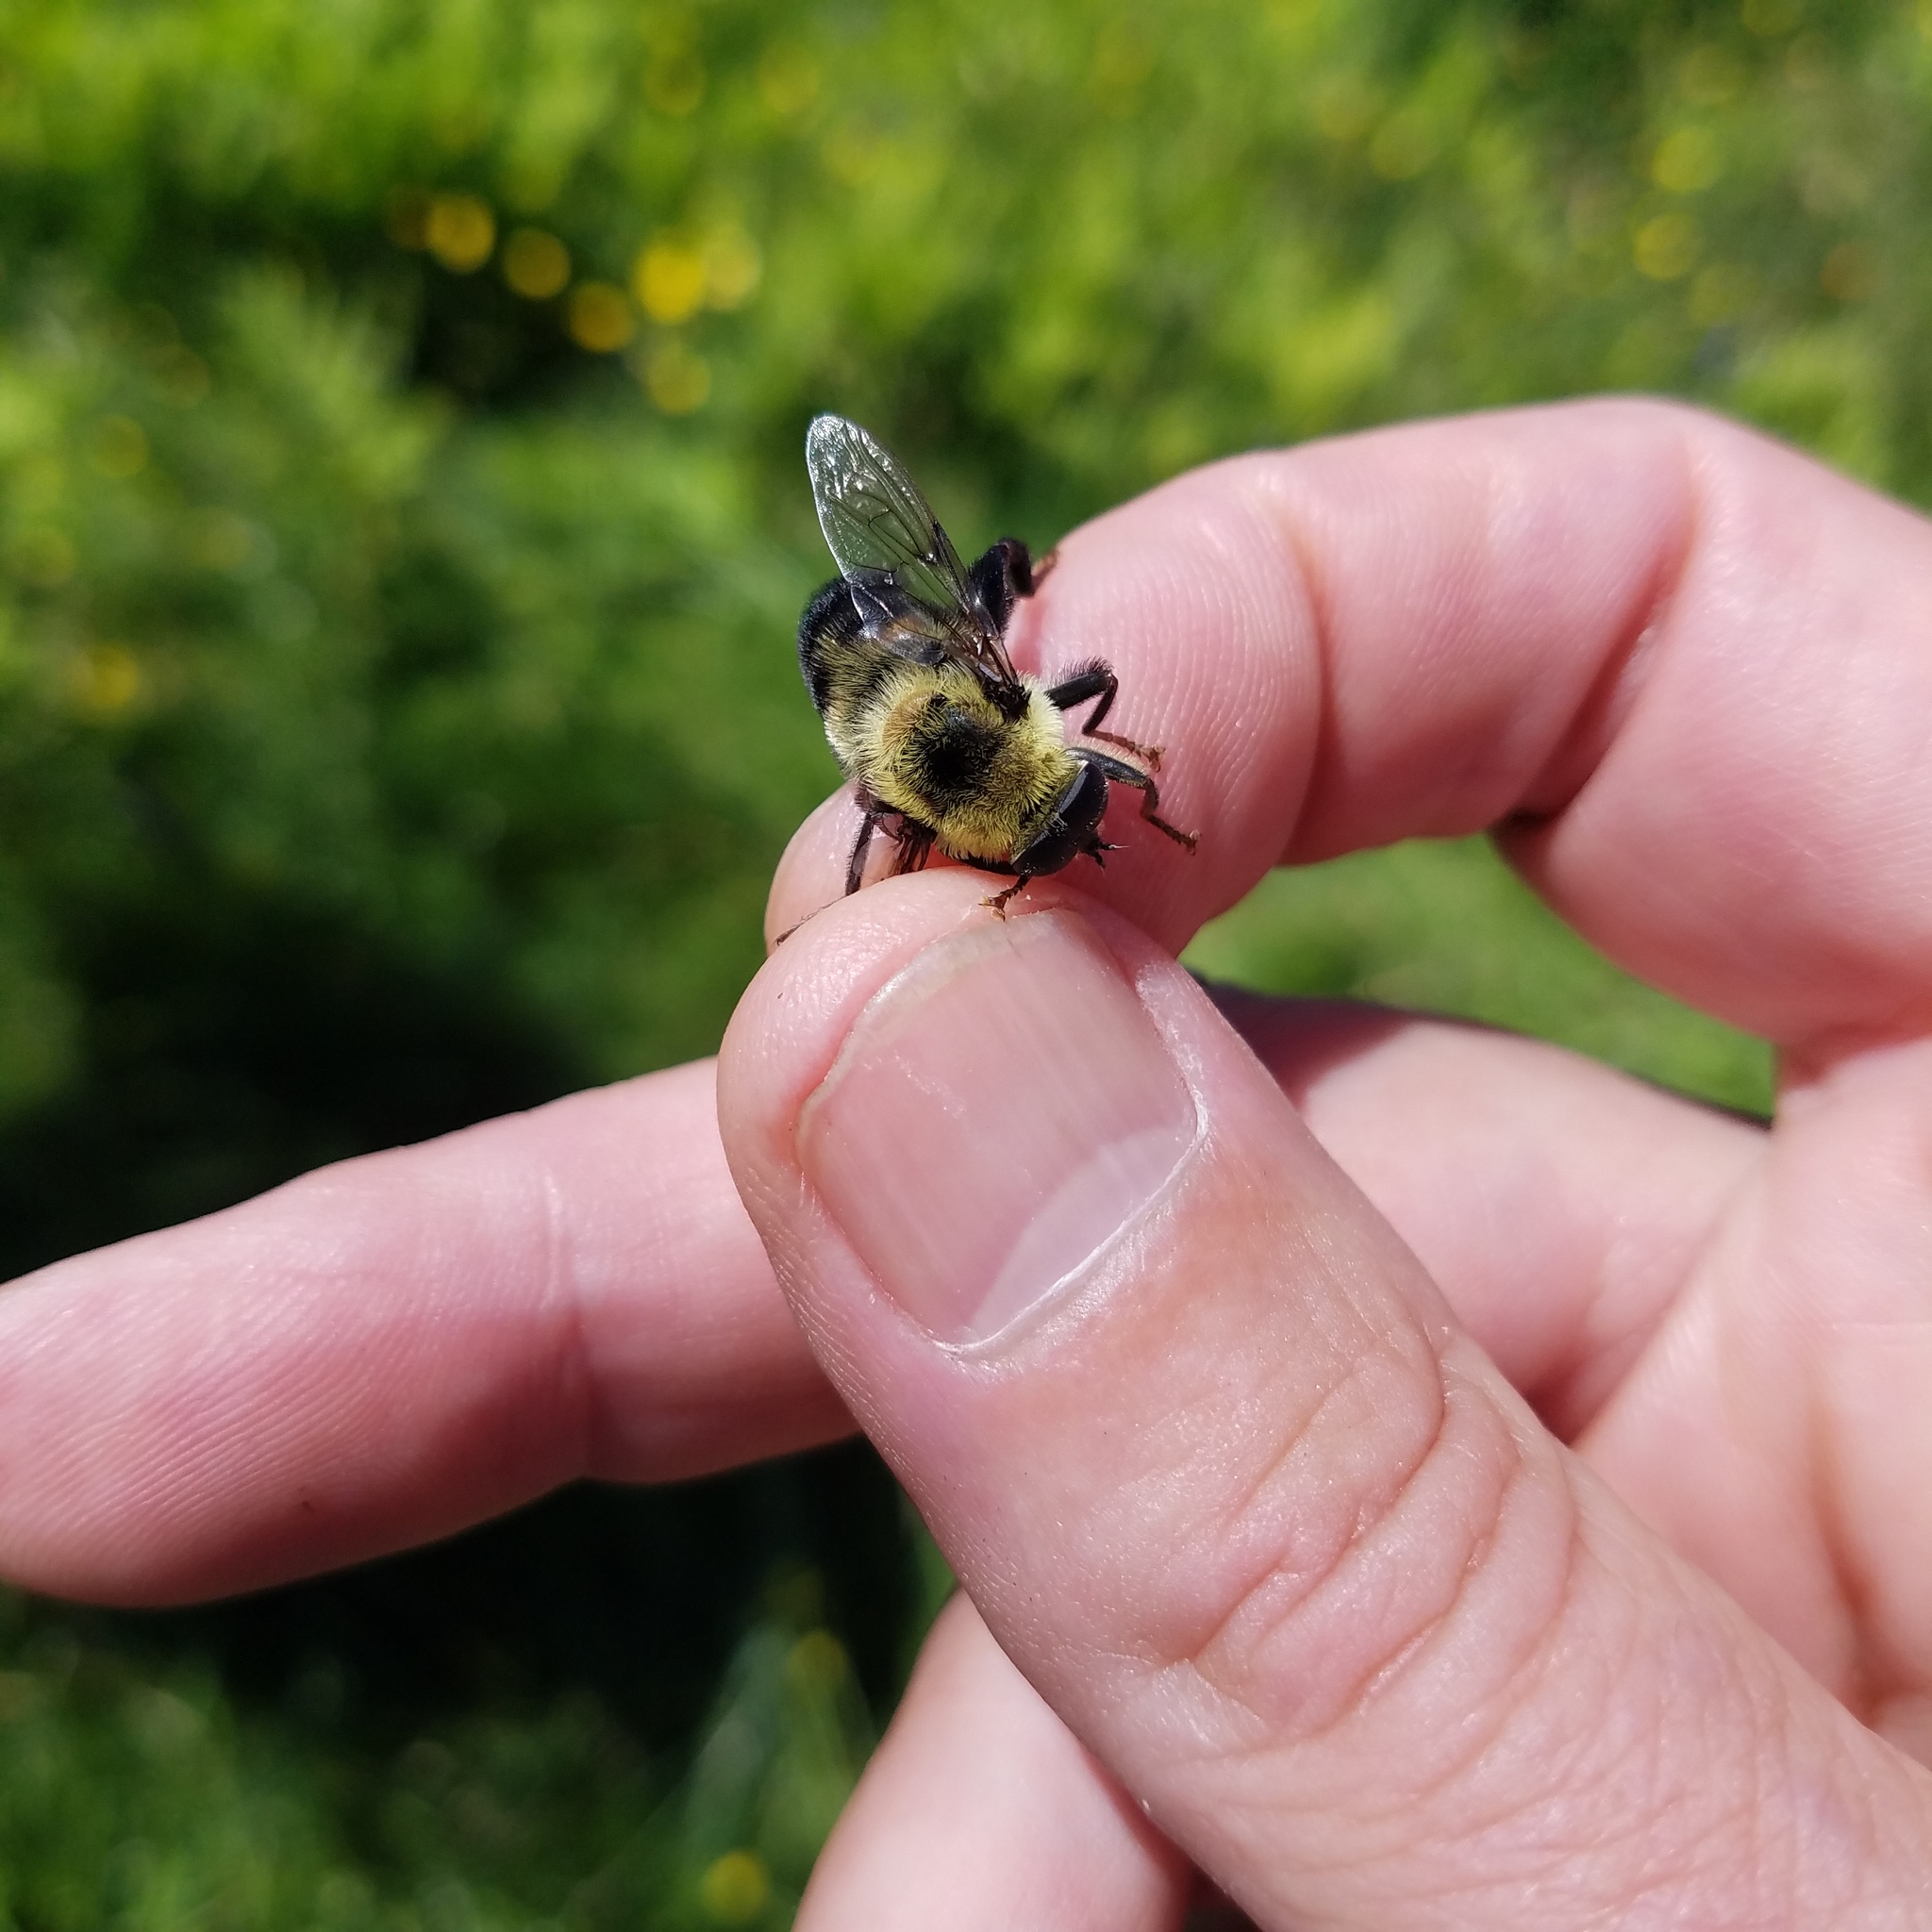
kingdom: Animalia
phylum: Arthropoda
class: Insecta
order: Diptera
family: Syrphidae
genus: Imatisma
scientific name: Imatisma posticata
